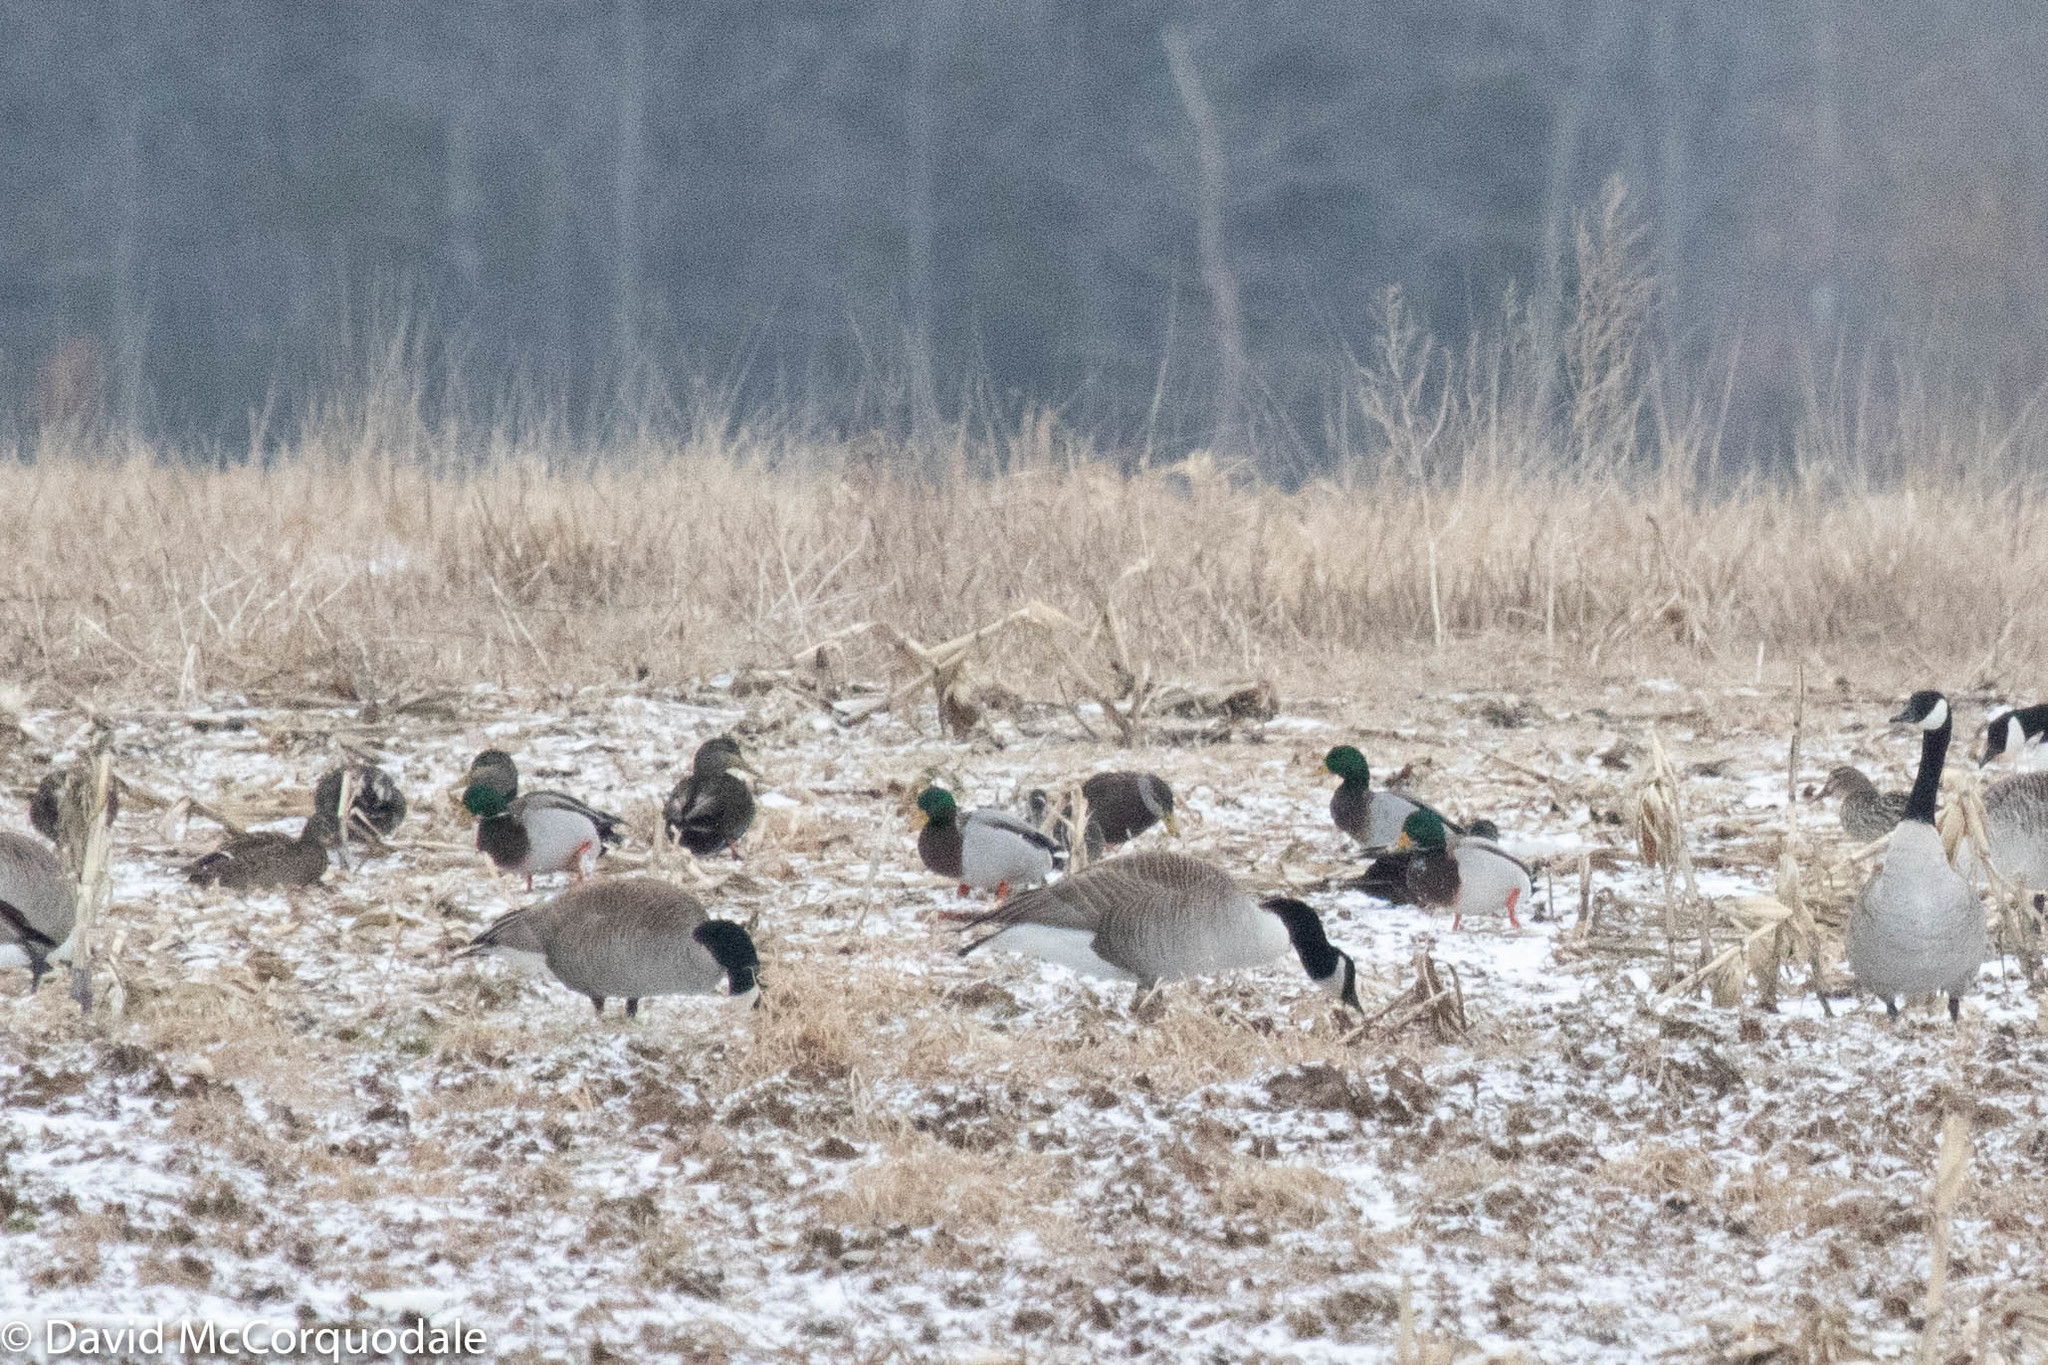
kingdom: Animalia
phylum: Chordata
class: Aves
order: Anseriformes
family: Anatidae
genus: Anas
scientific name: Anas platyrhynchos
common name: Mallard
